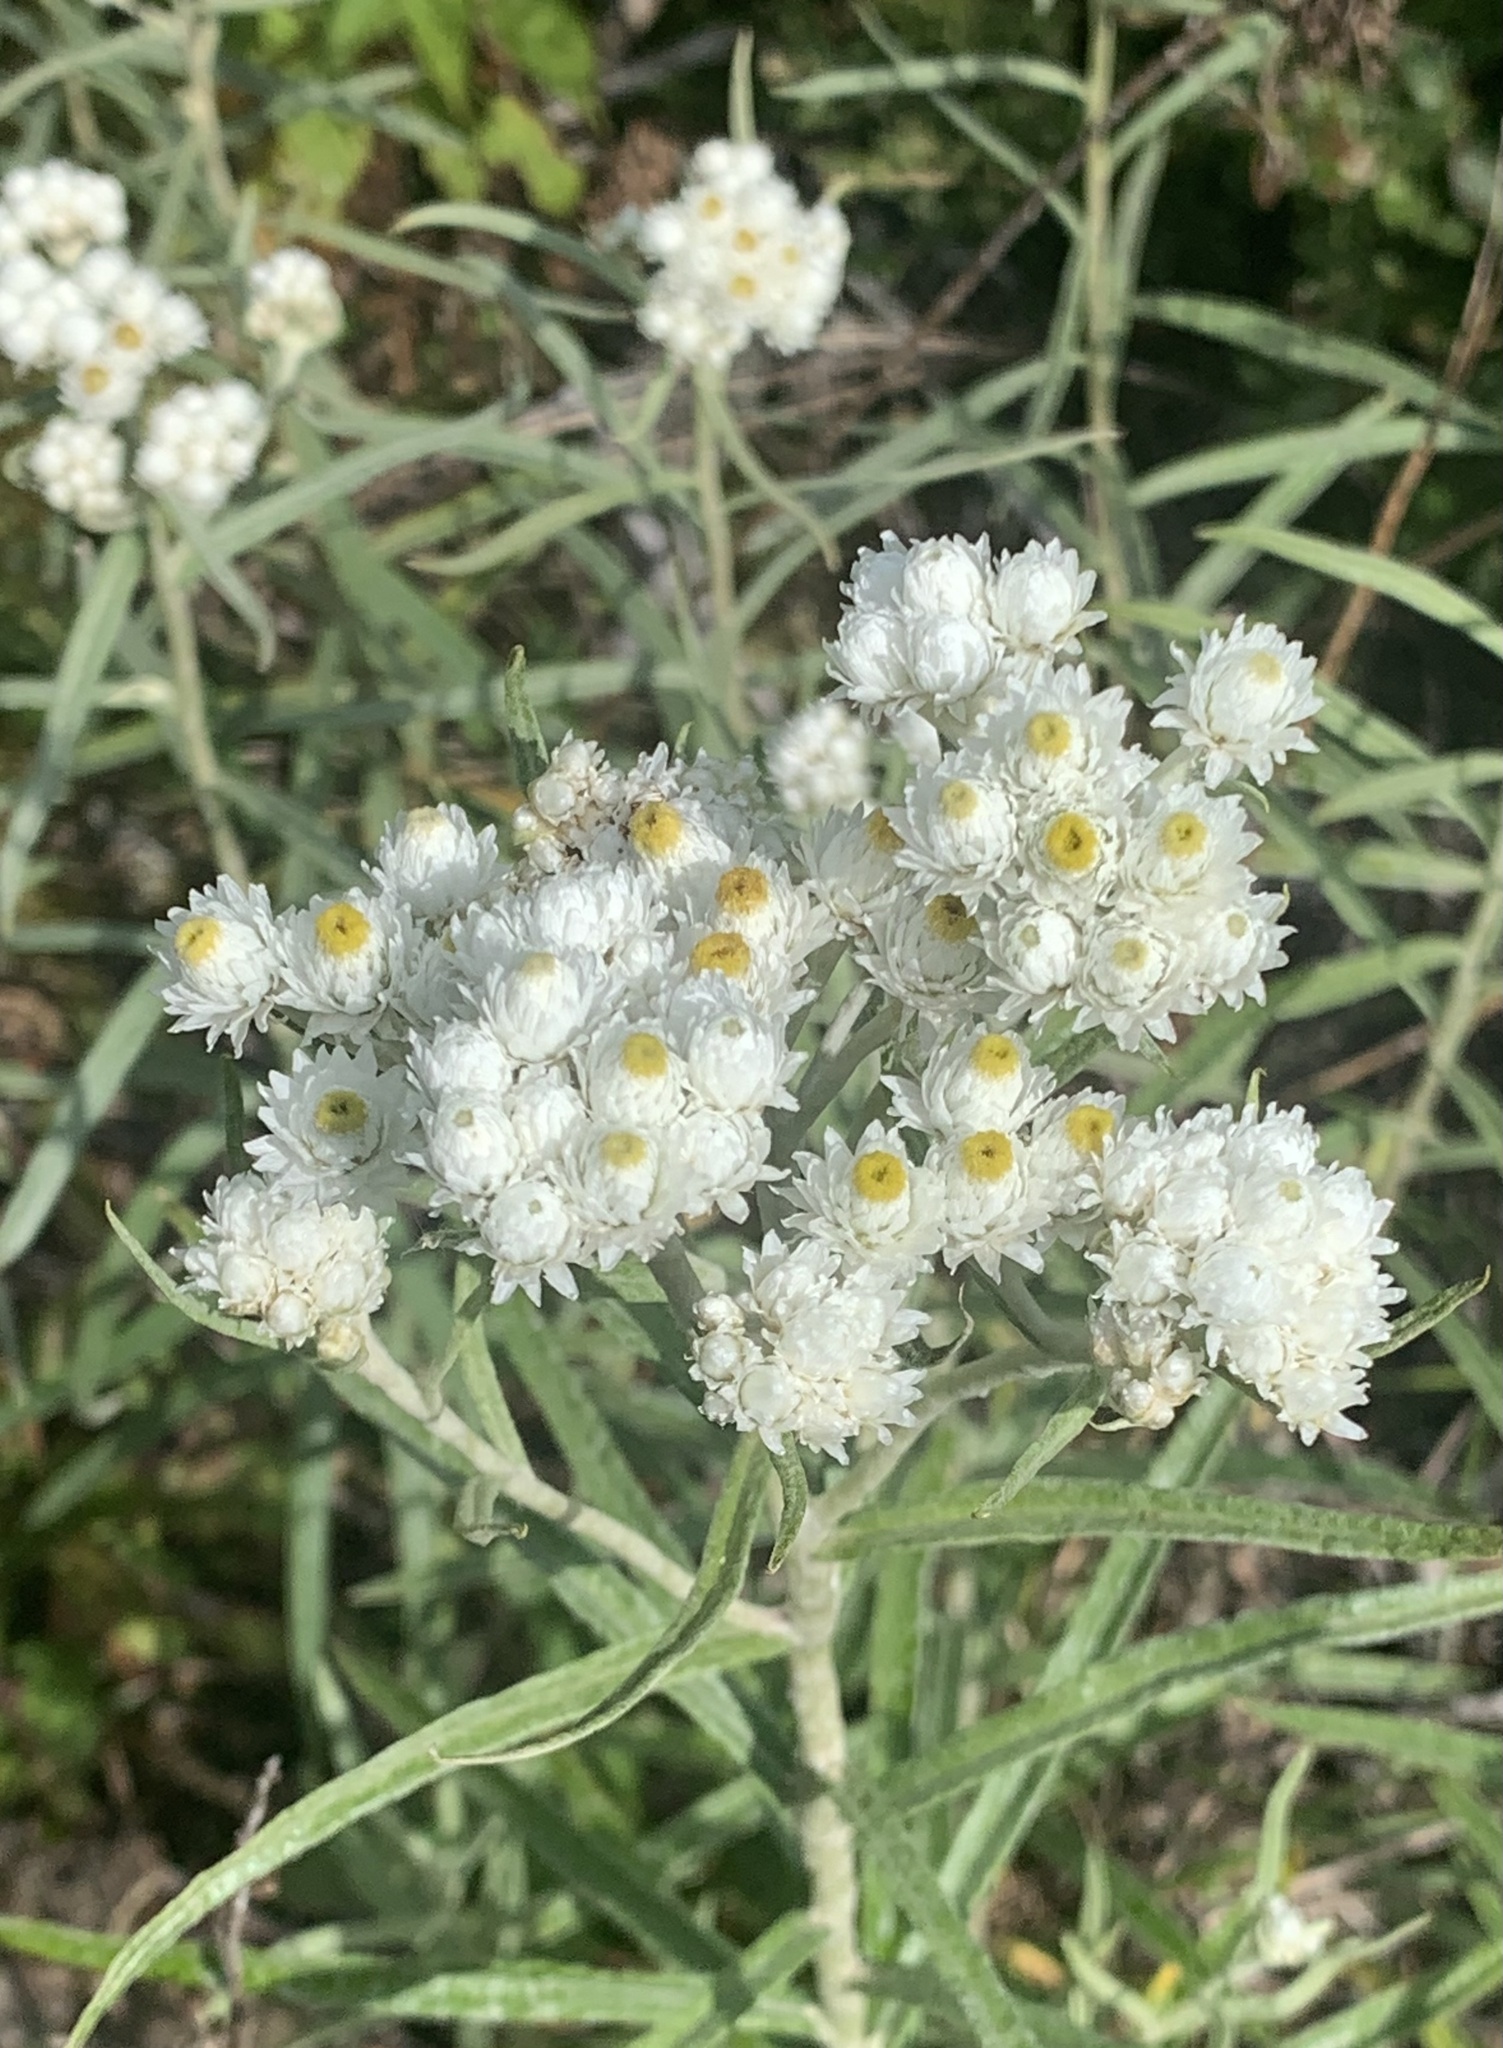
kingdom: Plantae
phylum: Tracheophyta
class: Magnoliopsida
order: Asterales
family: Asteraceae
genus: Anaphalis
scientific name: Anaphalis margaritacea
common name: Pearly everlasting
